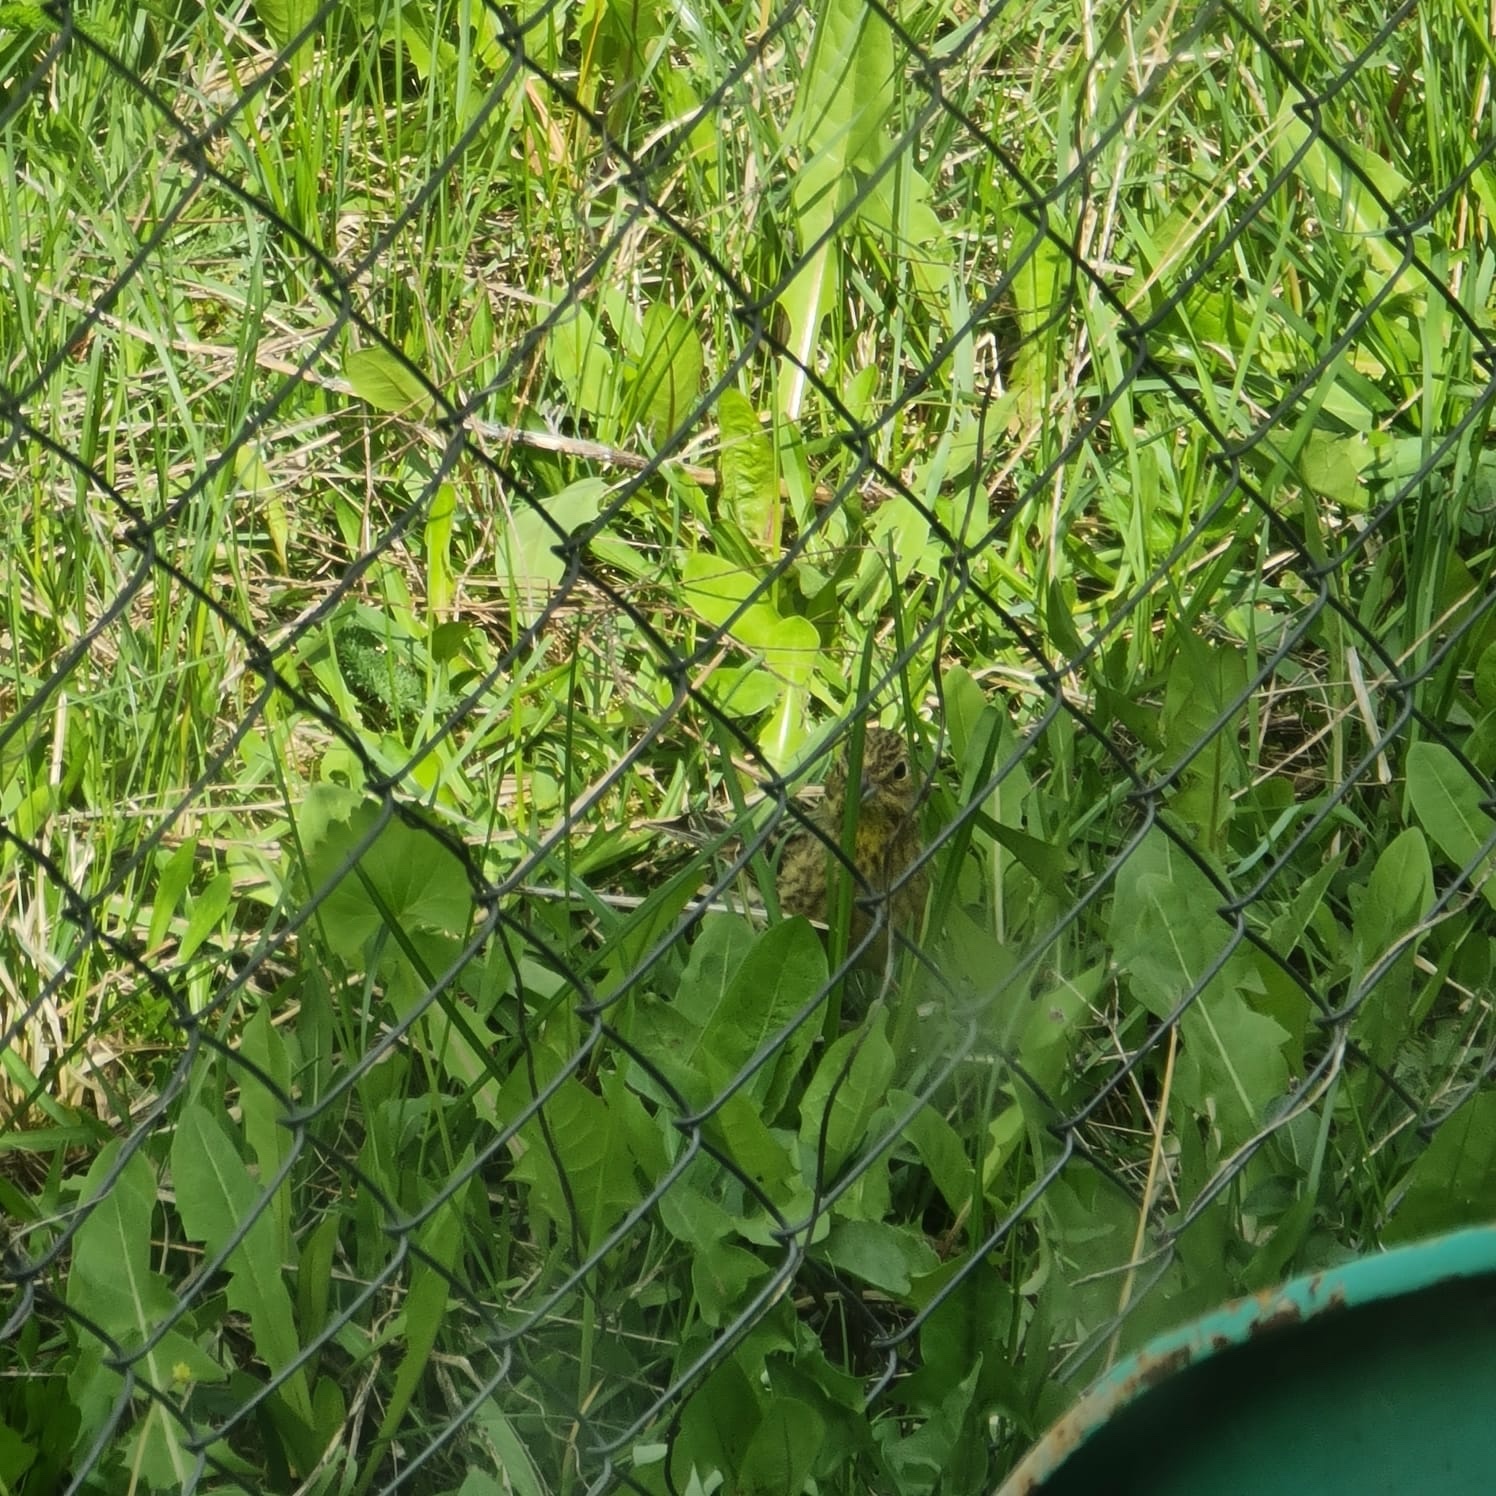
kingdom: Animalia
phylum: Chordata
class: Aves
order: Passeriformes
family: Emberizidae
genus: Emberiza
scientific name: Emberiza citrinella
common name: Yellowhammer
